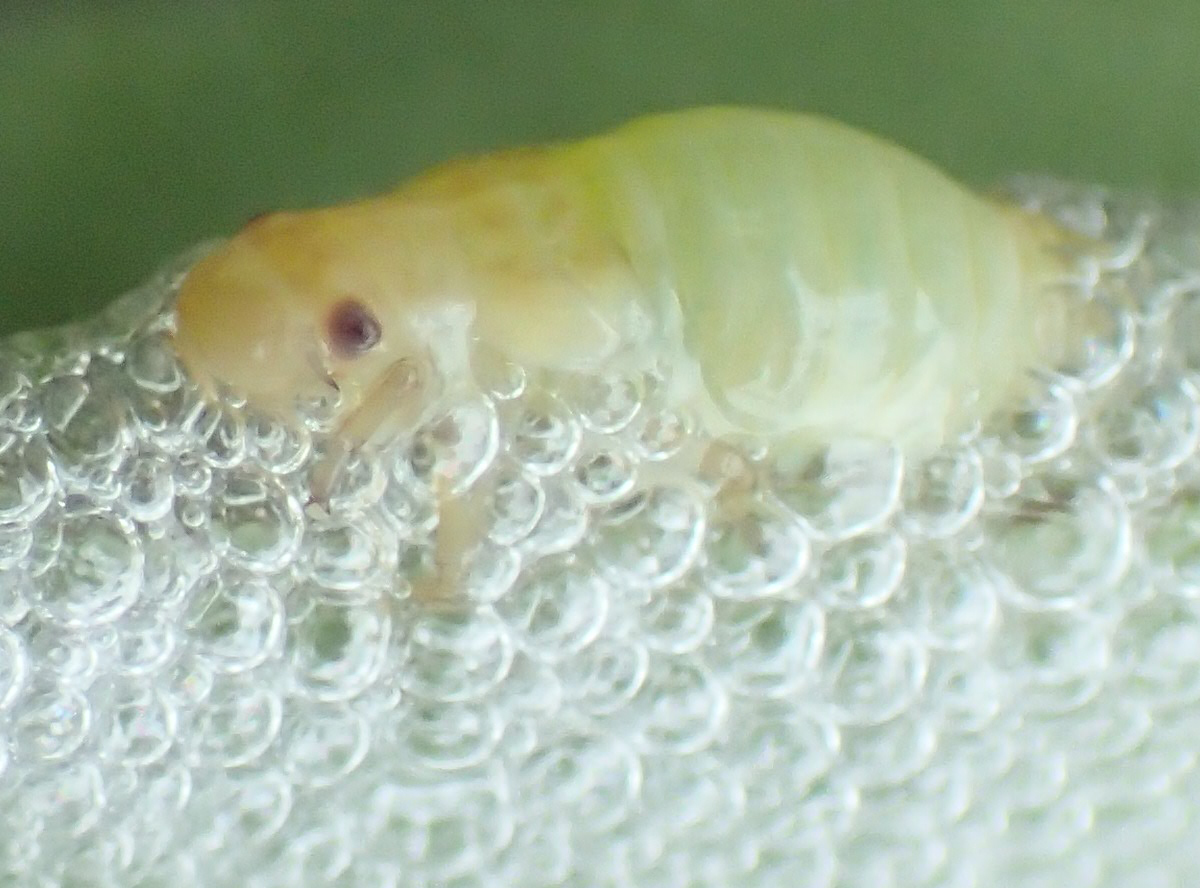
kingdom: Animalia
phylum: Arthropoda
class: Insecta
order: Hemiptera
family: Aphrophoridae
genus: Philaenus
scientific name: Philaenus spumarius
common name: Meadow spittlebug
